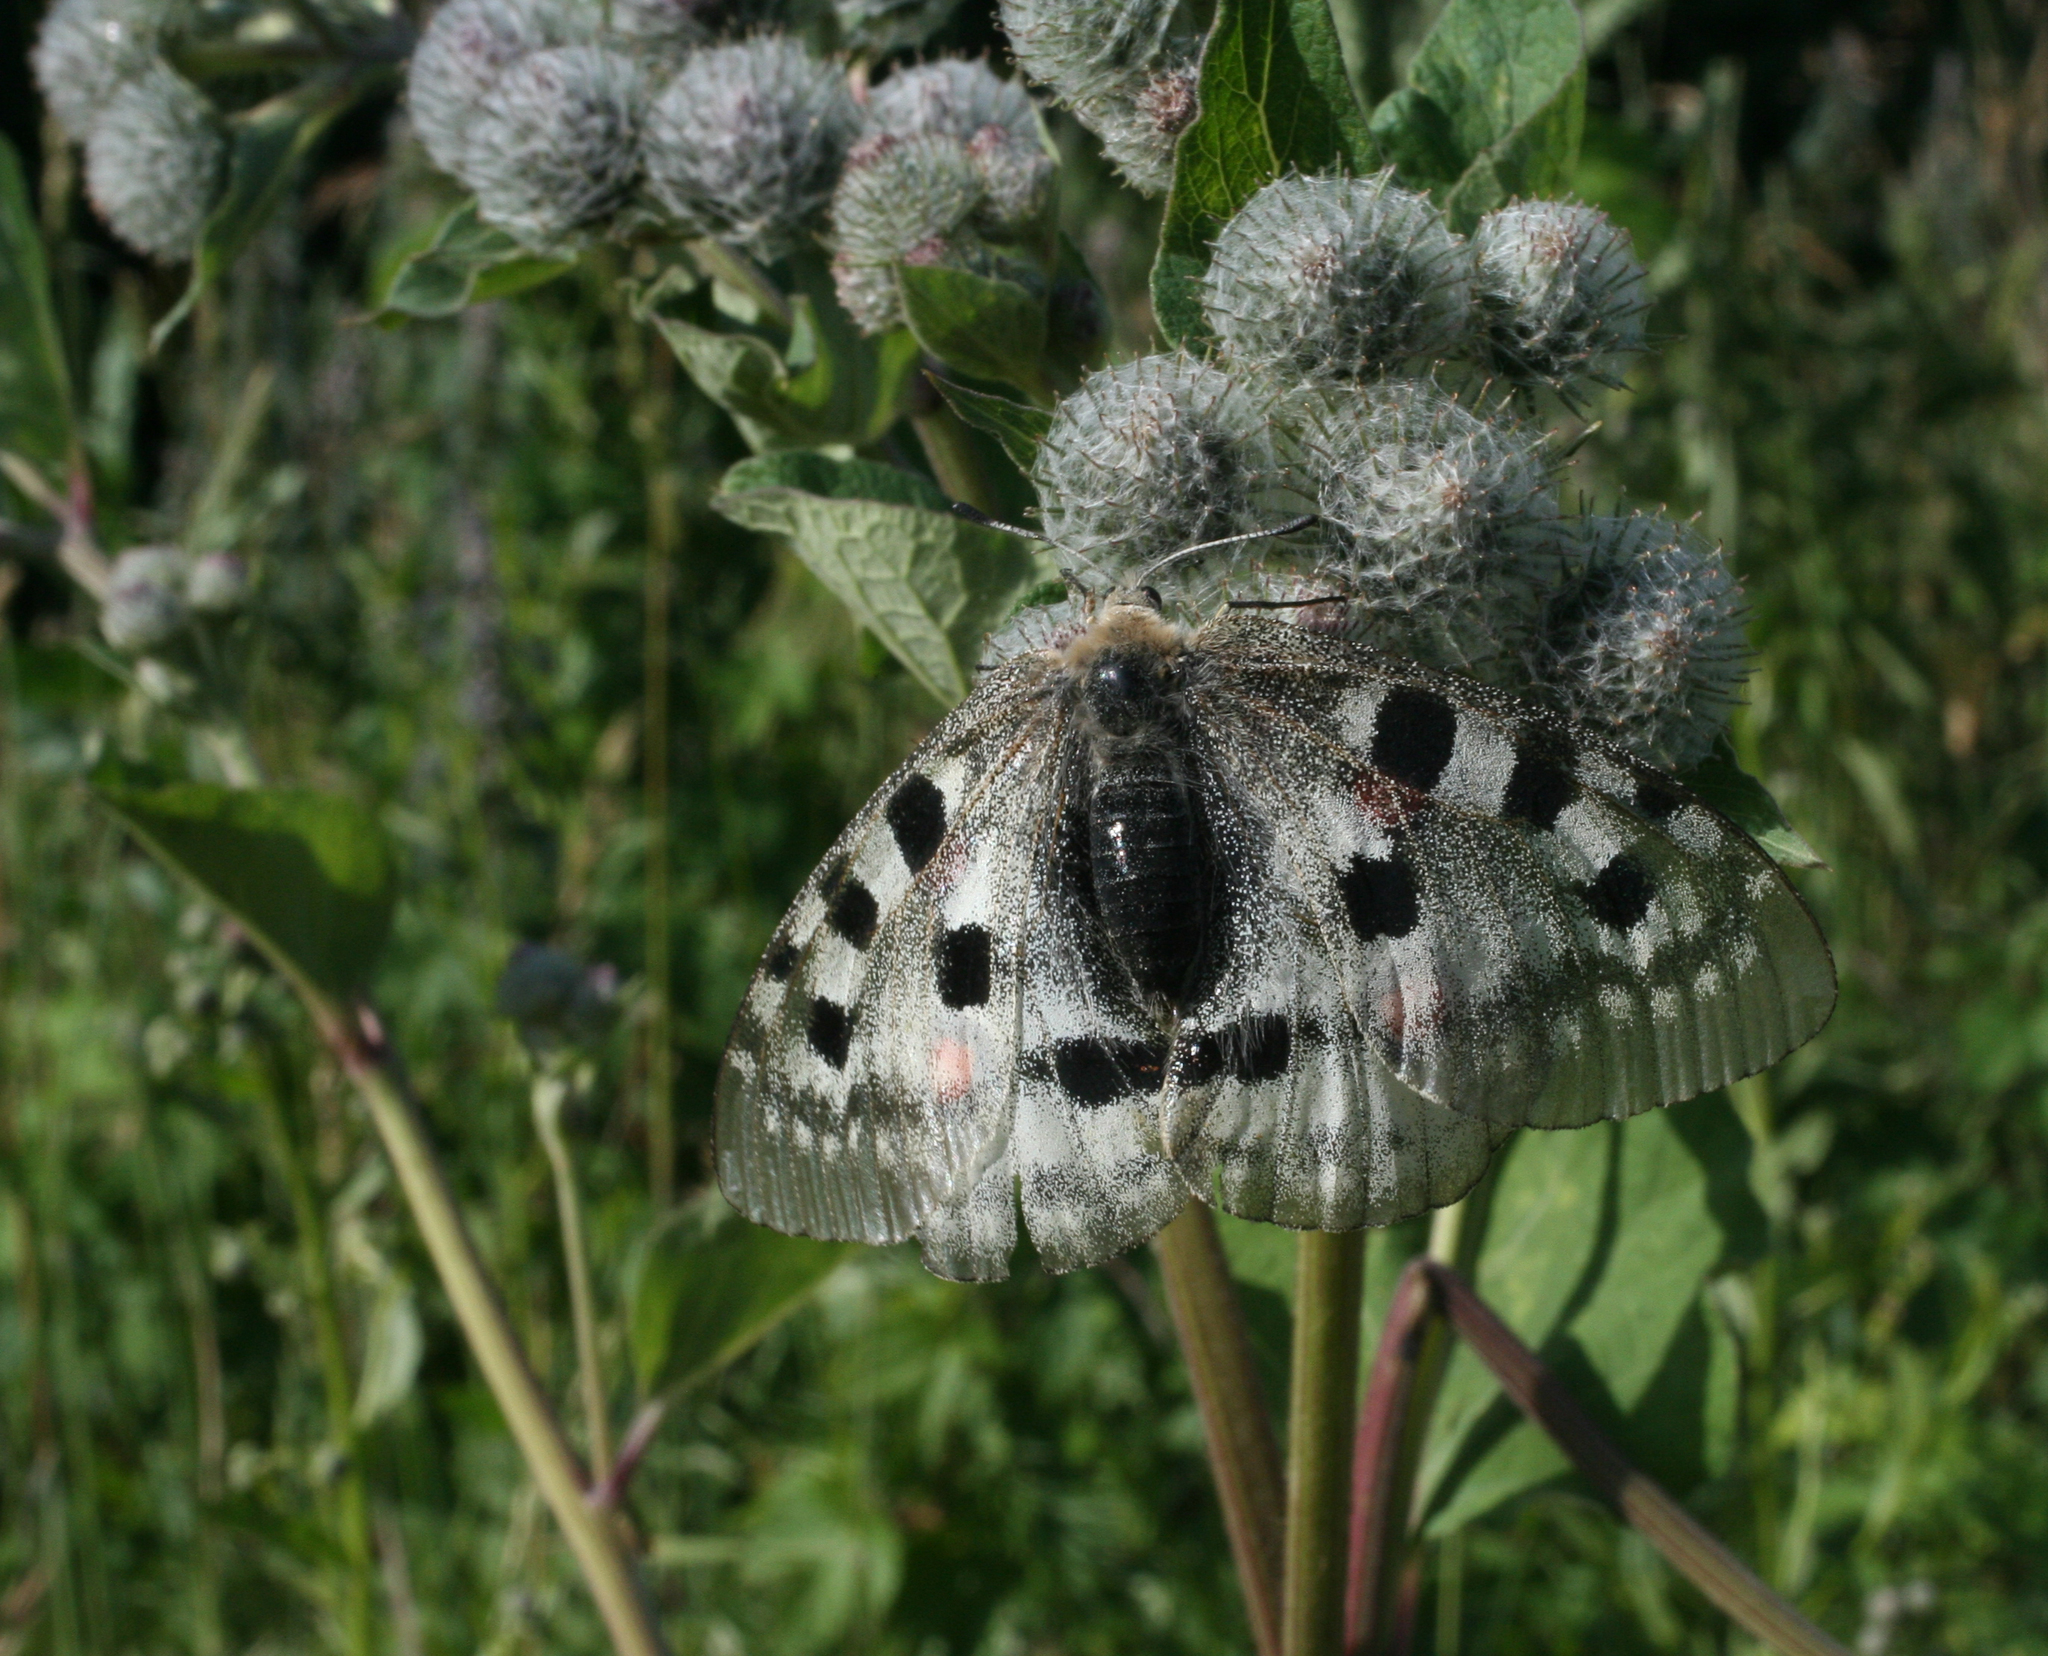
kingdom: Plantae
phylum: Tracheophyta
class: Magnoliopsida
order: Asterales
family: Asteraceae
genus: Arctium
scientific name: Arctium tomentosum
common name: Woolly burdock
